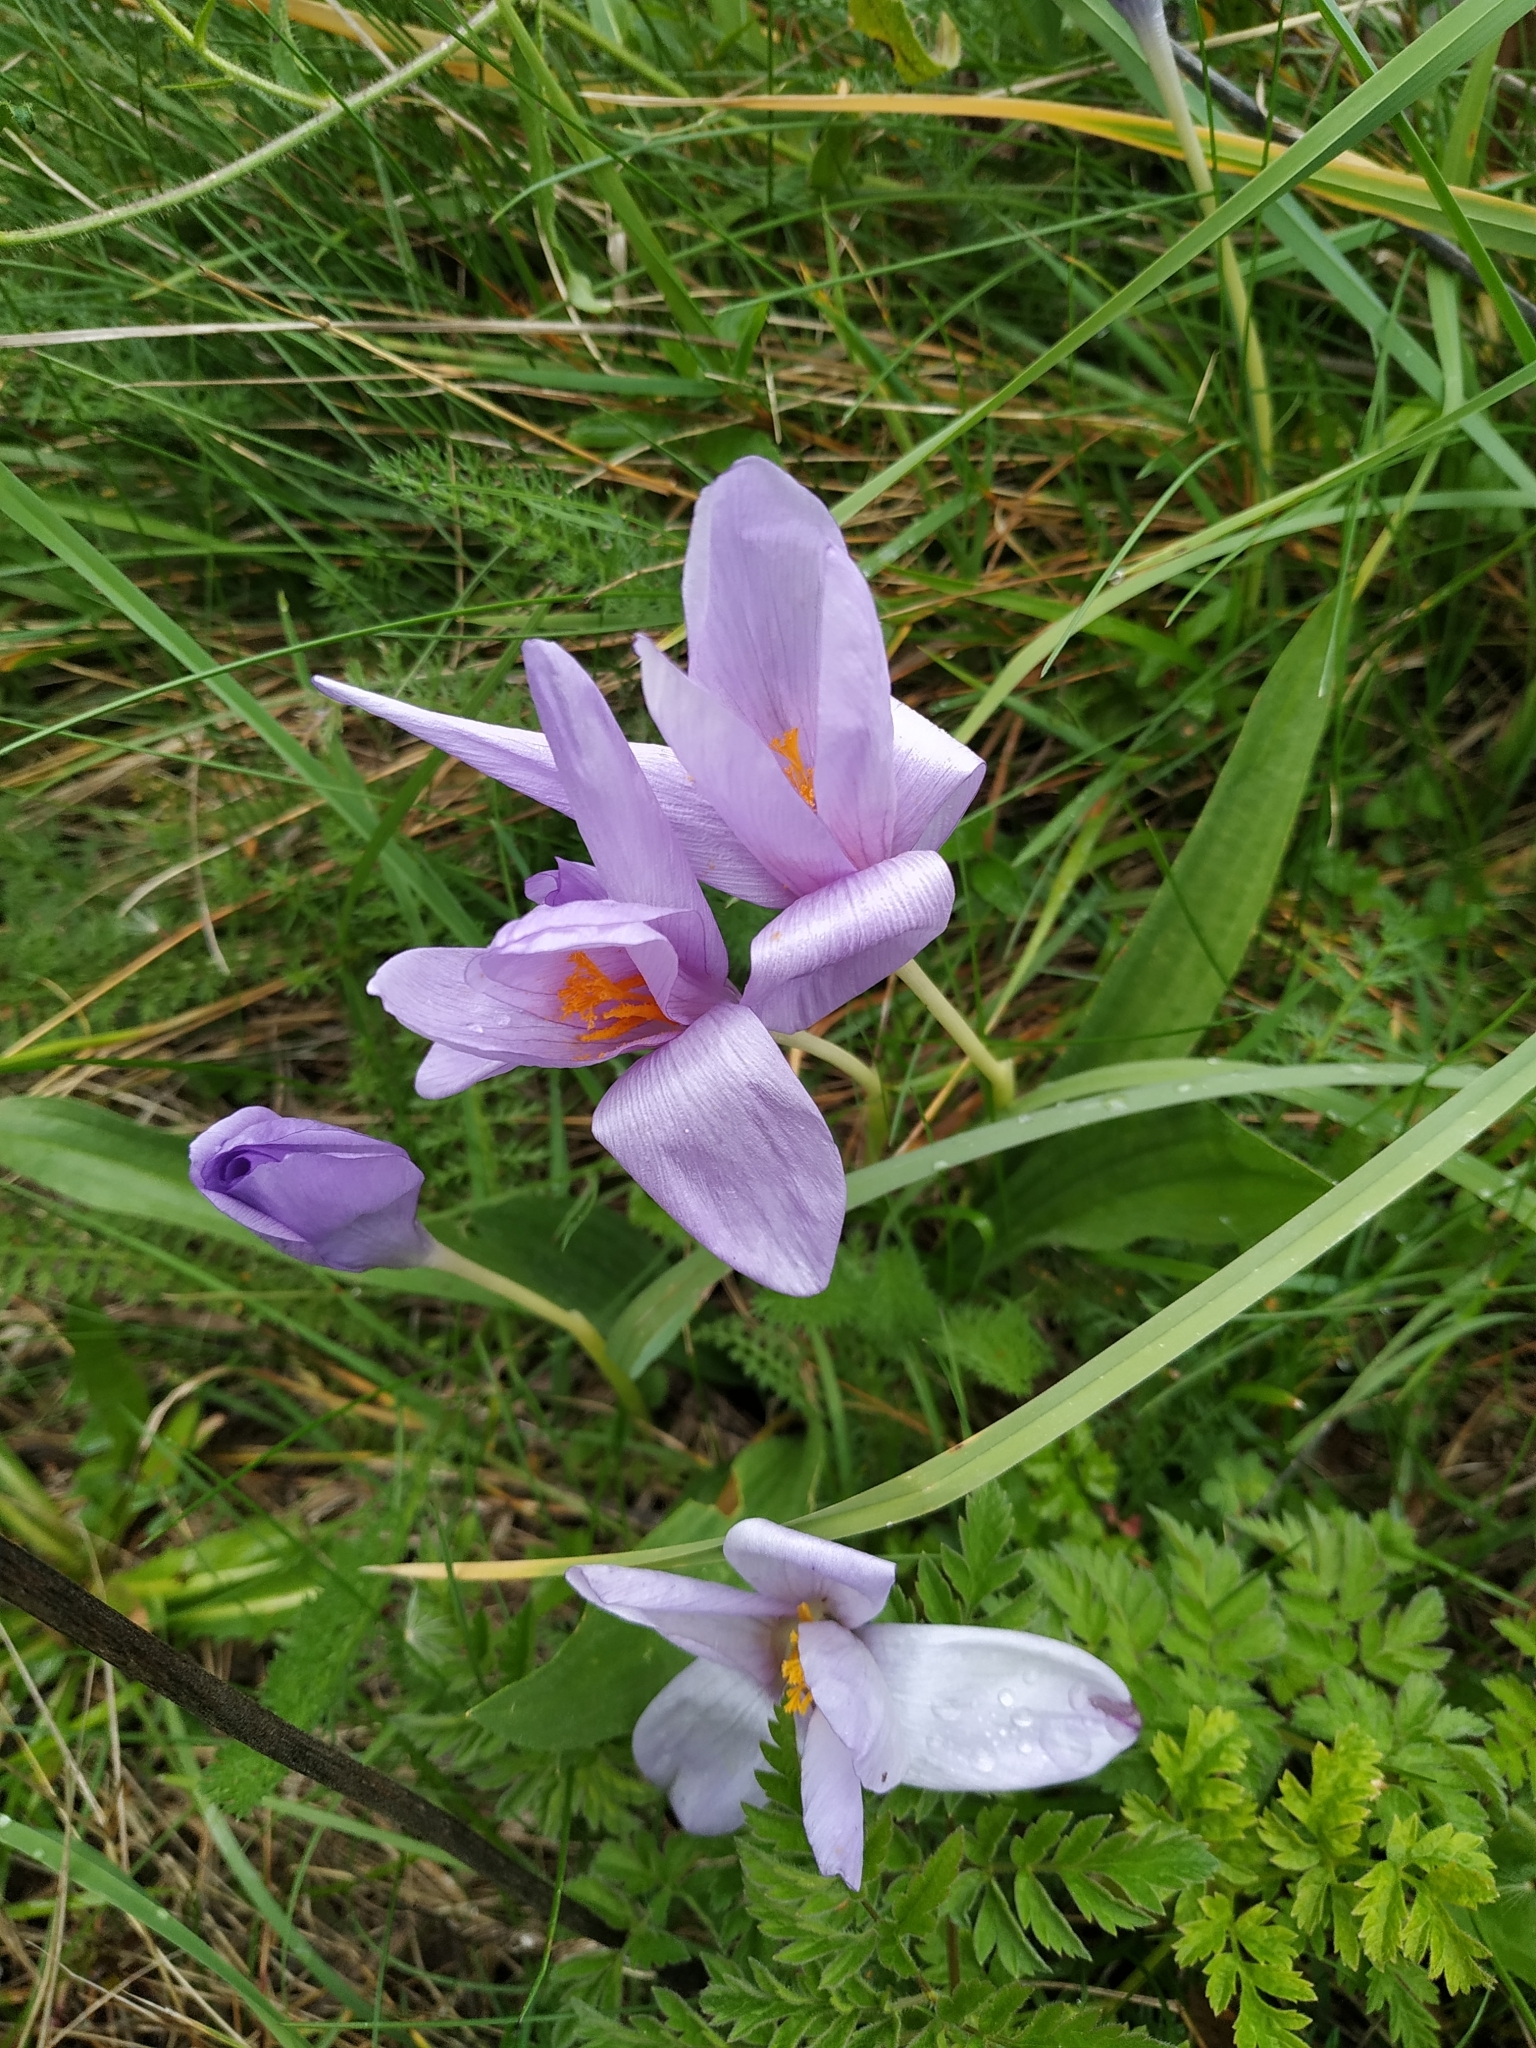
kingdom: Plantae
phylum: Tracheophyta
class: Liliopsida
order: Asparagales
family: Iridaceae
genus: Crocus
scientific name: Crocus nudiflorus
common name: Autumn crocus
